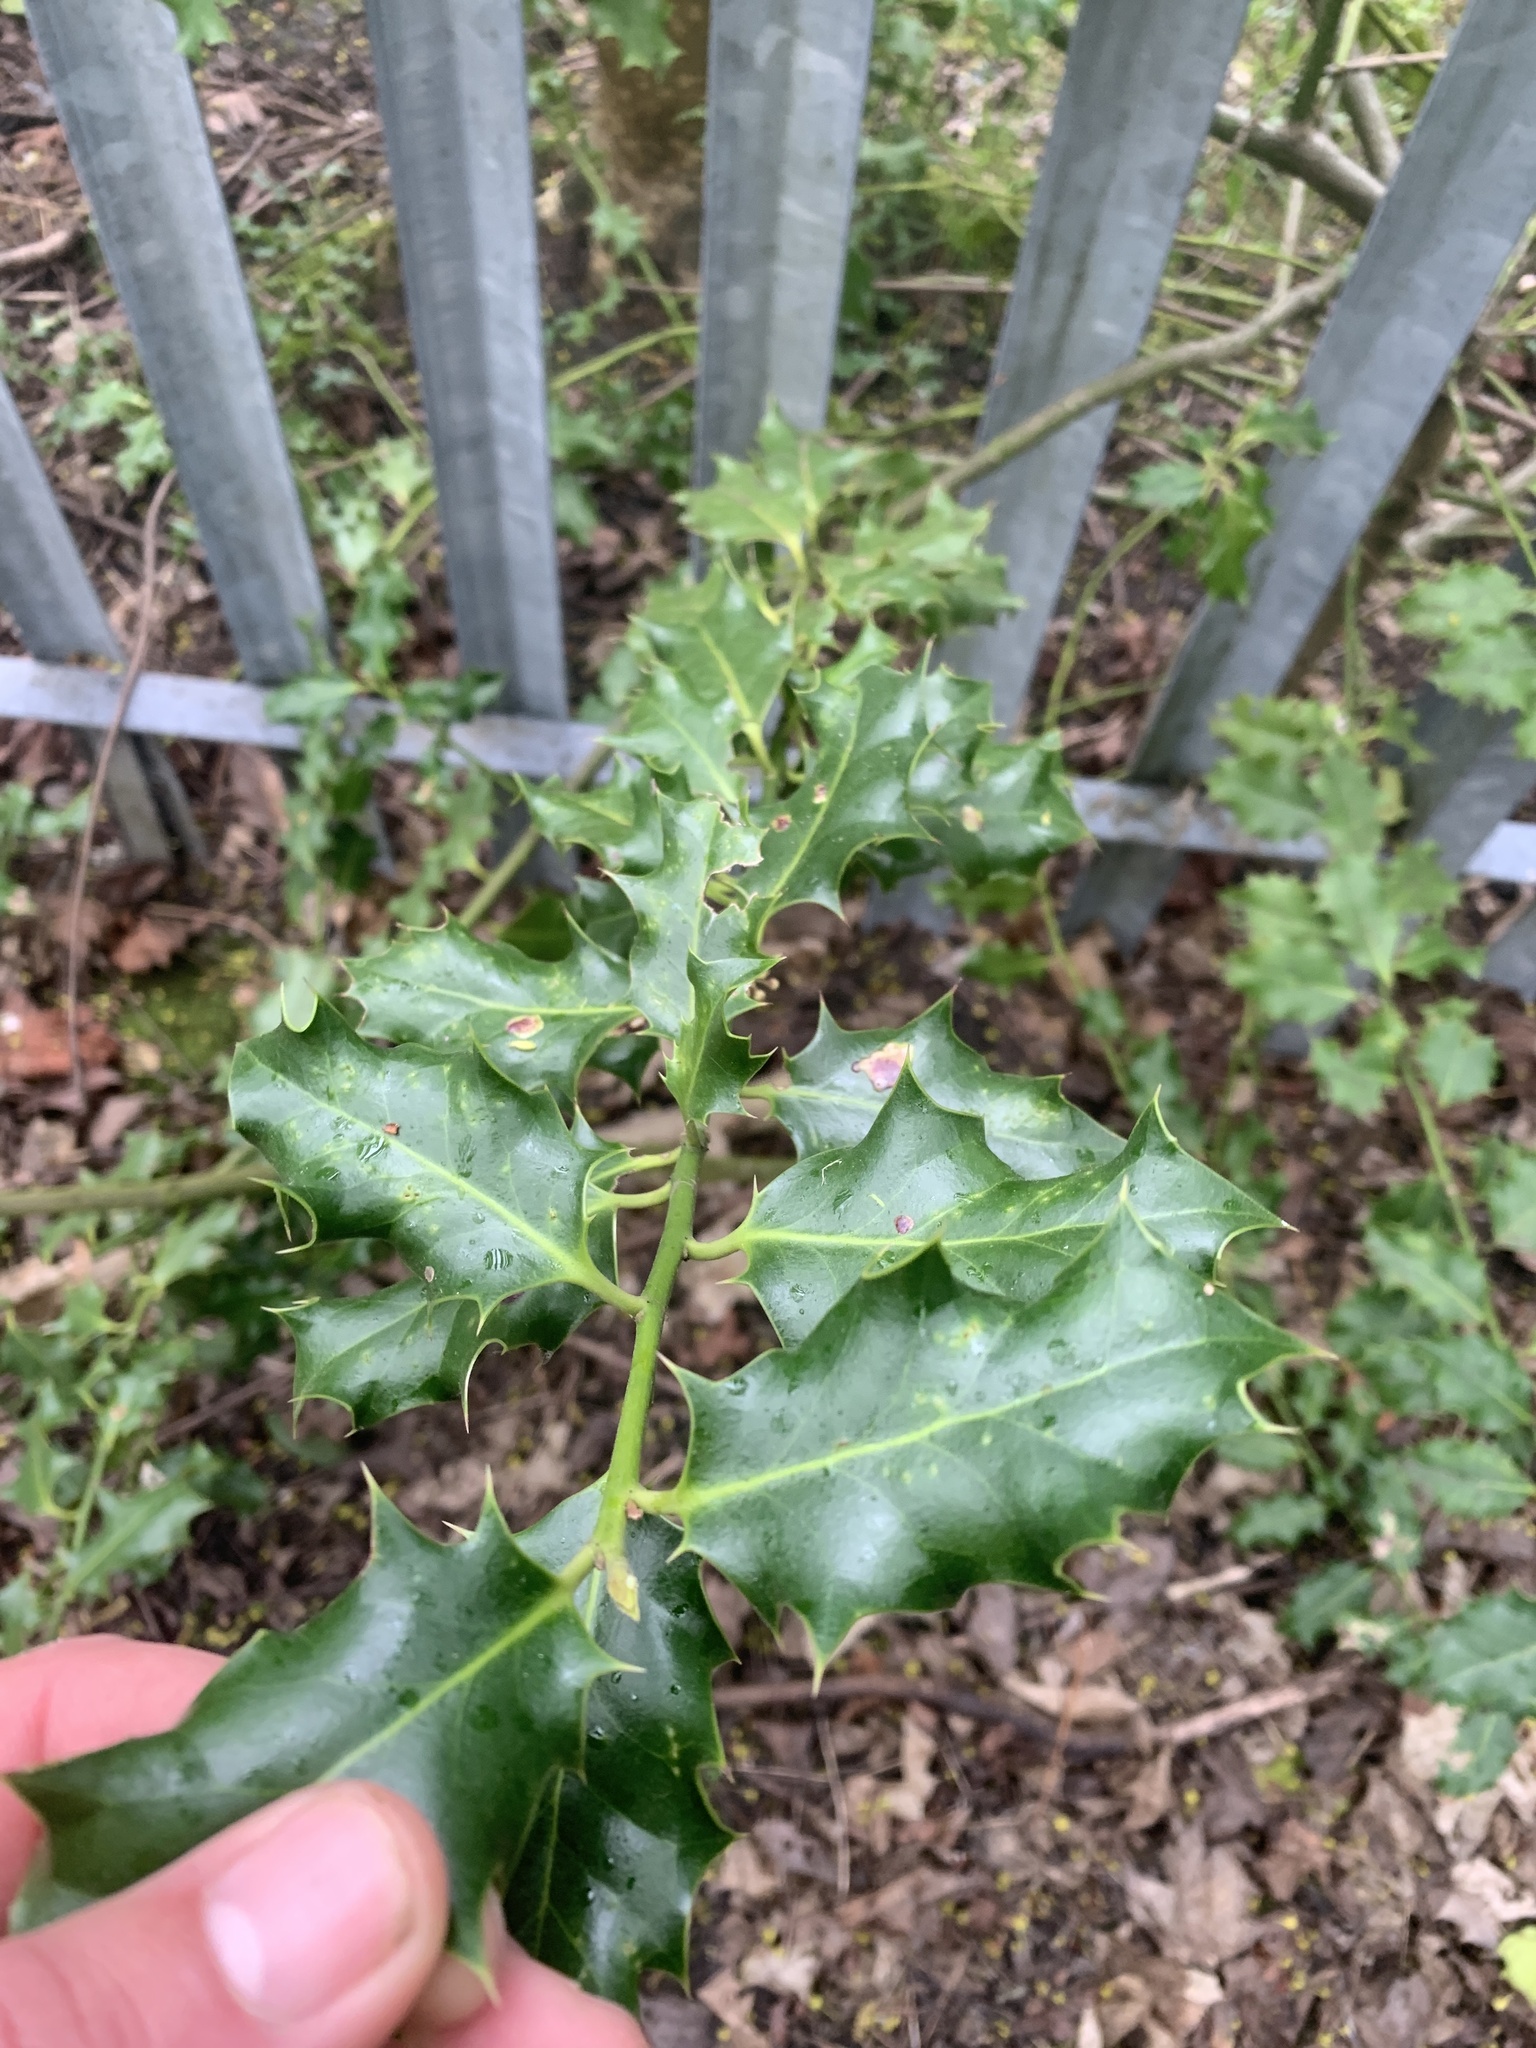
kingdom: Plantae
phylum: Tracheophyta
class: Magnoliopsida
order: Aquifoliales
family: Aquifoliaceae
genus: Ilex
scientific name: Ilex aquifolium
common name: English holly
